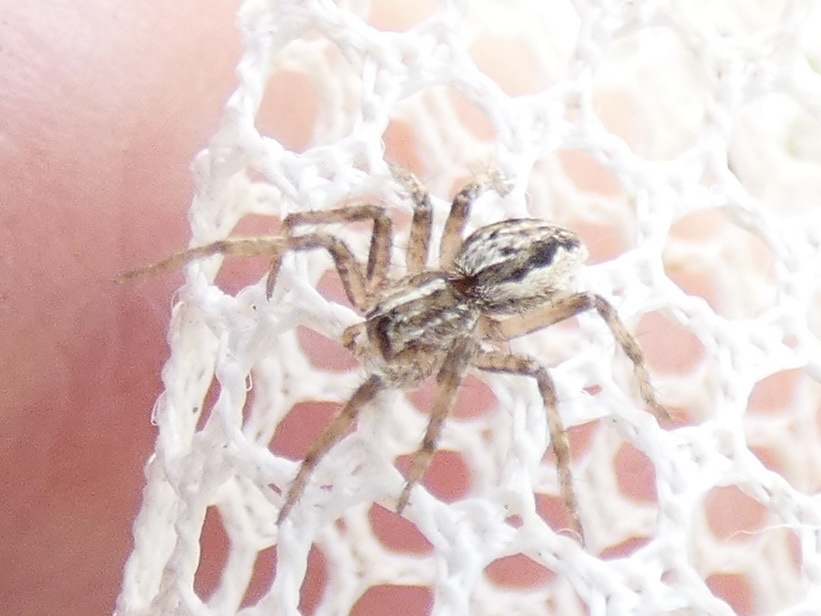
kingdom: Animalia
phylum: Arthropoda
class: Arachnida
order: Araneae
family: Pisauridae
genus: Pisaura
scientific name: Pisaura mirabilis
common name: Tent spider
